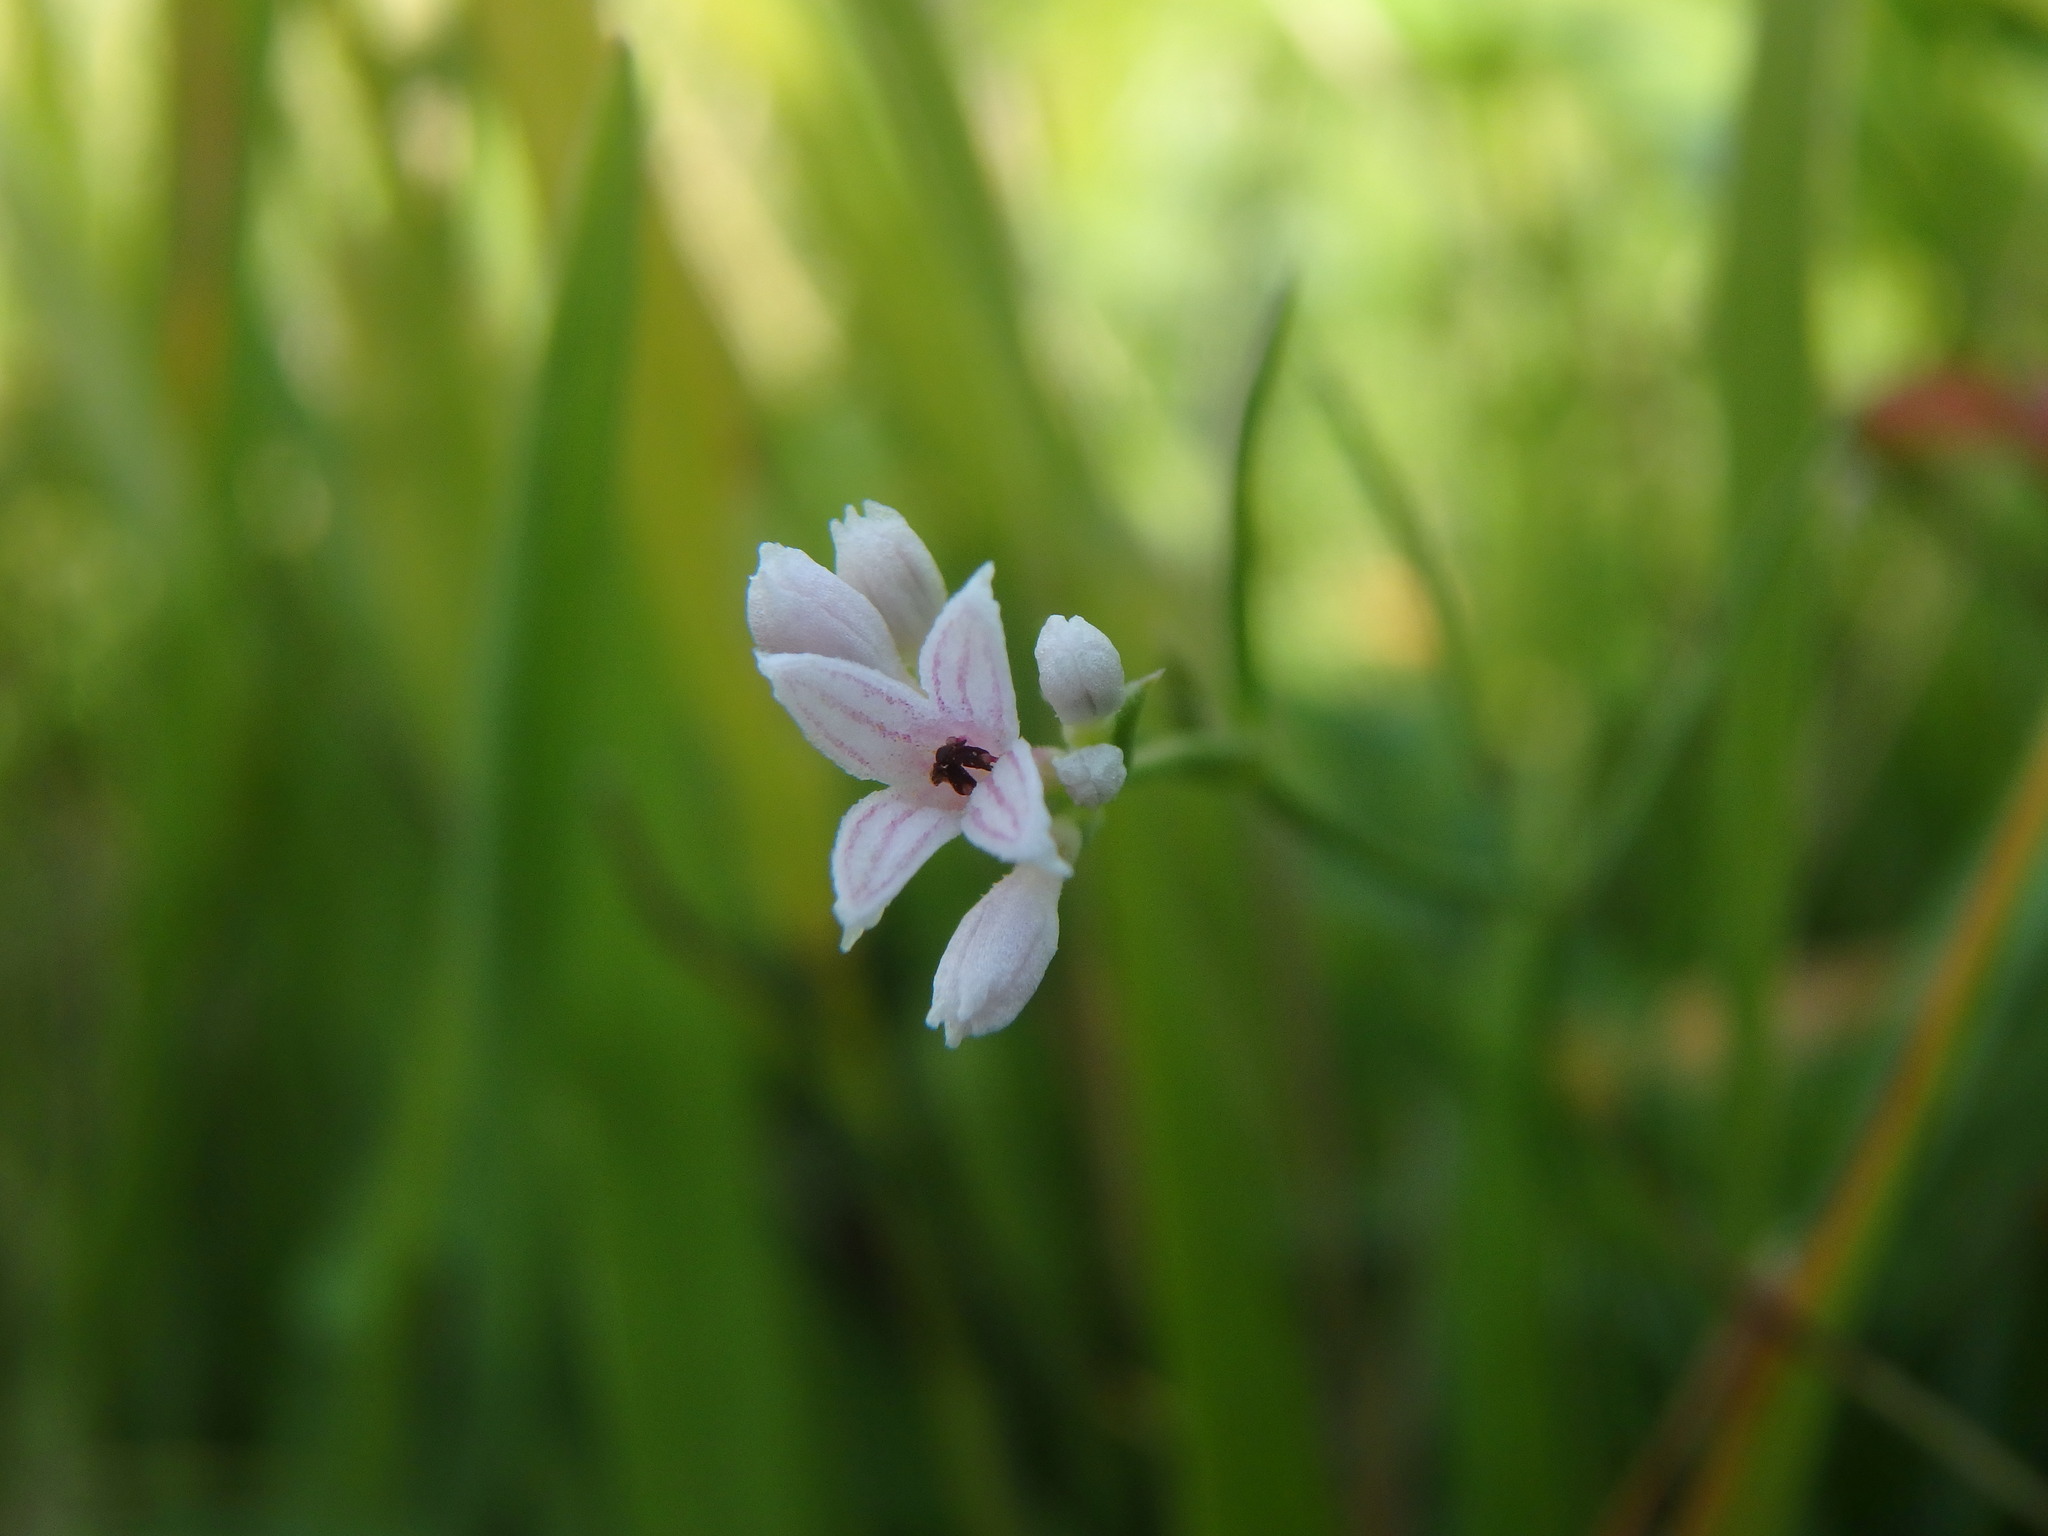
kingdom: Plantae
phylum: Tracheophyta
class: Magnoliopsida
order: Gentianales
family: Rubiaceae
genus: Cynanchica
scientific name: Cynanchica pyrenaica
